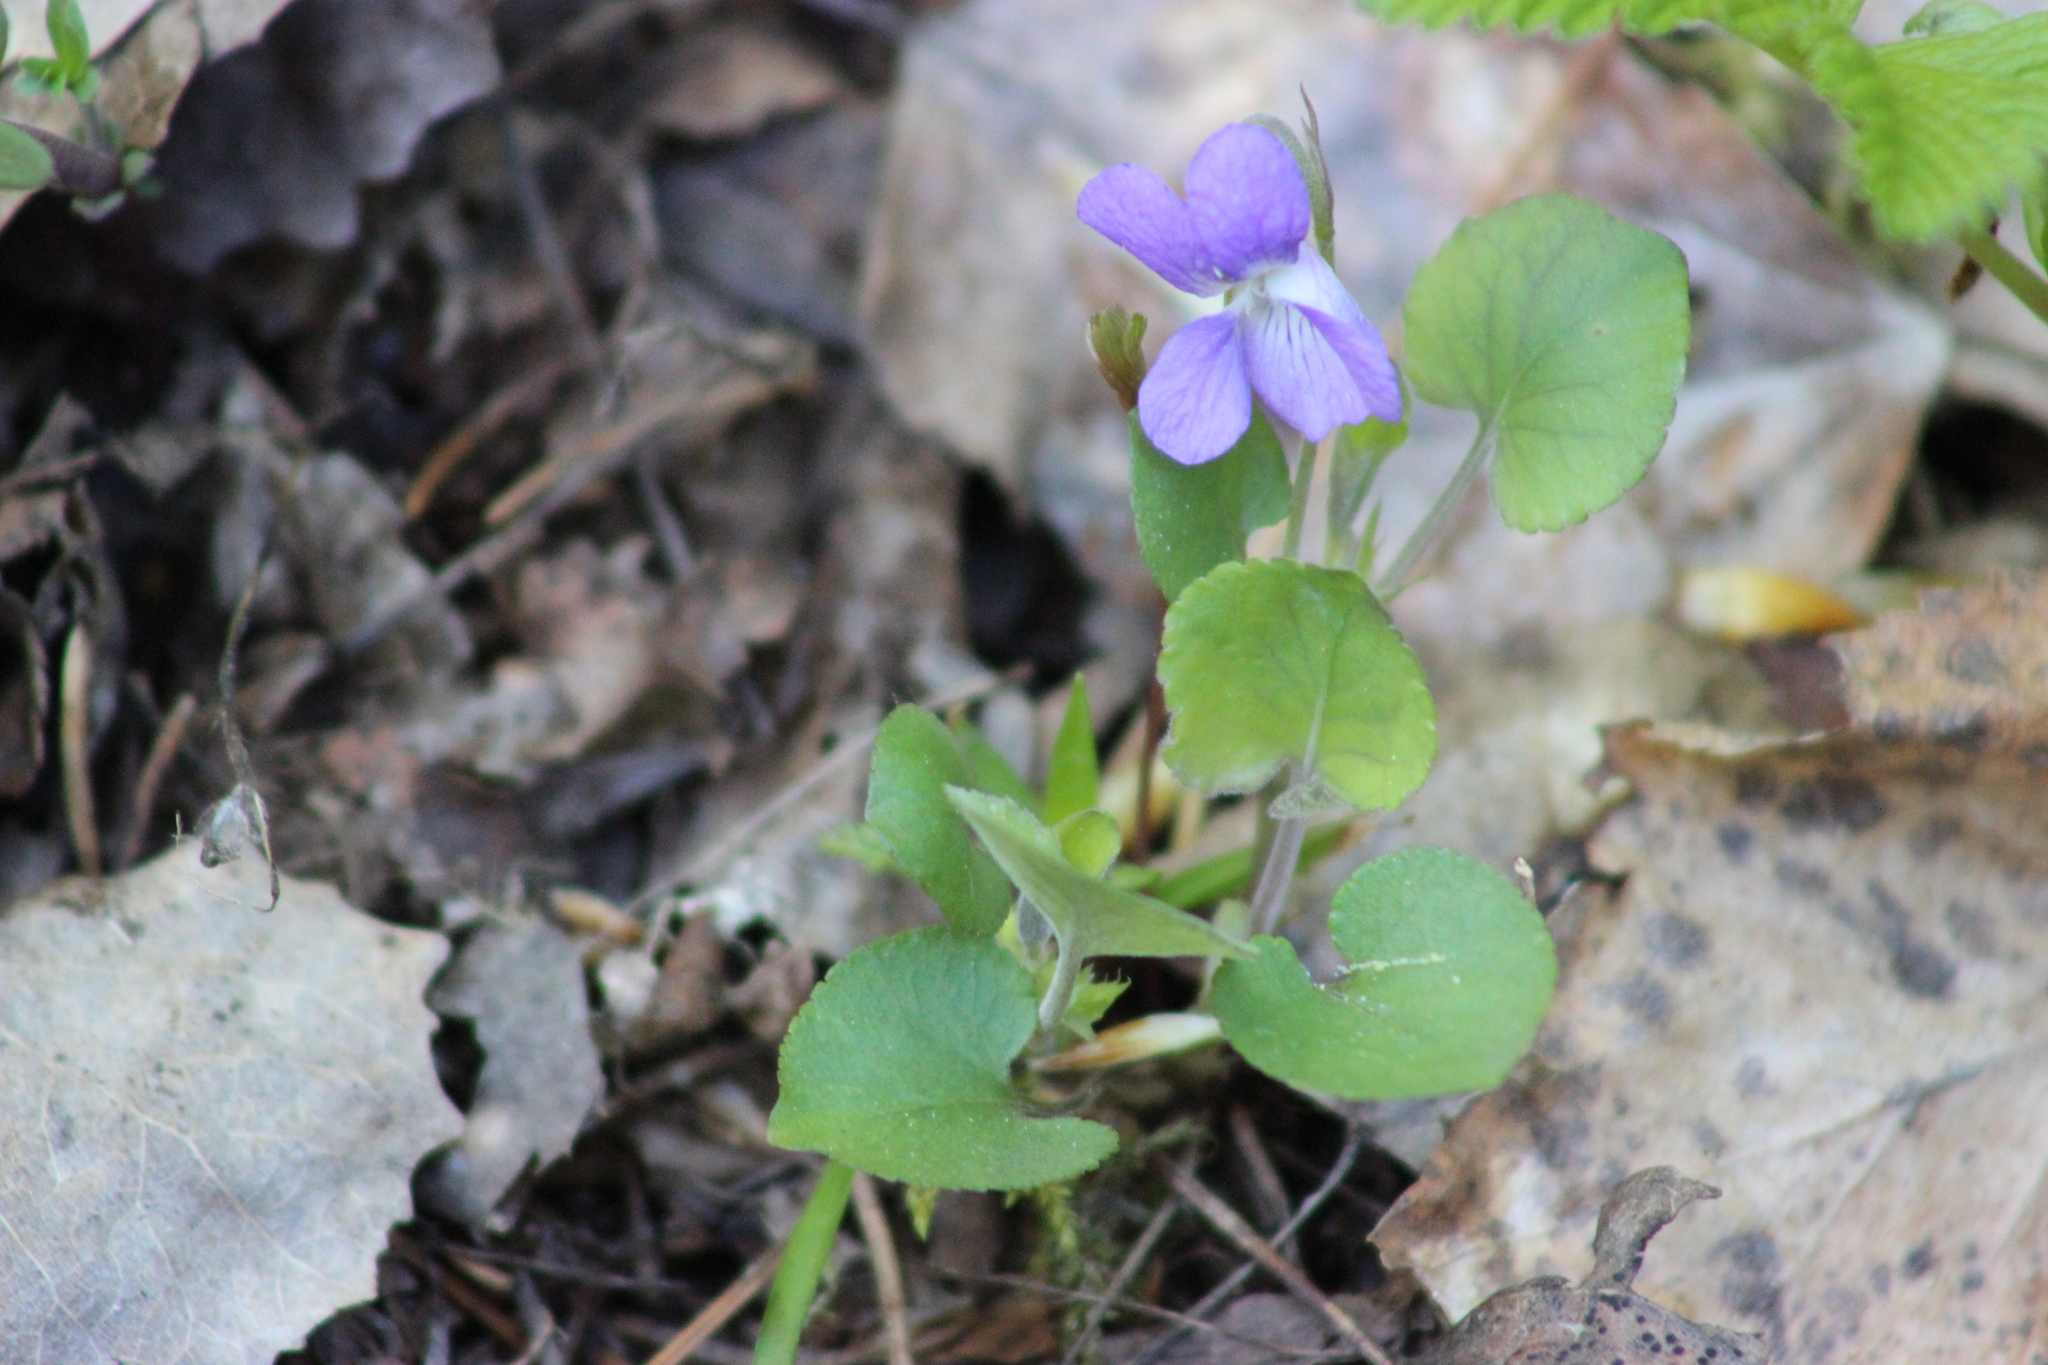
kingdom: Plantae
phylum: Tracheophyta
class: Magnoliopsida
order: Malpighiales
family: Violaceae
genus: Viola
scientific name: Viola rupestris
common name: Teesdale violet
